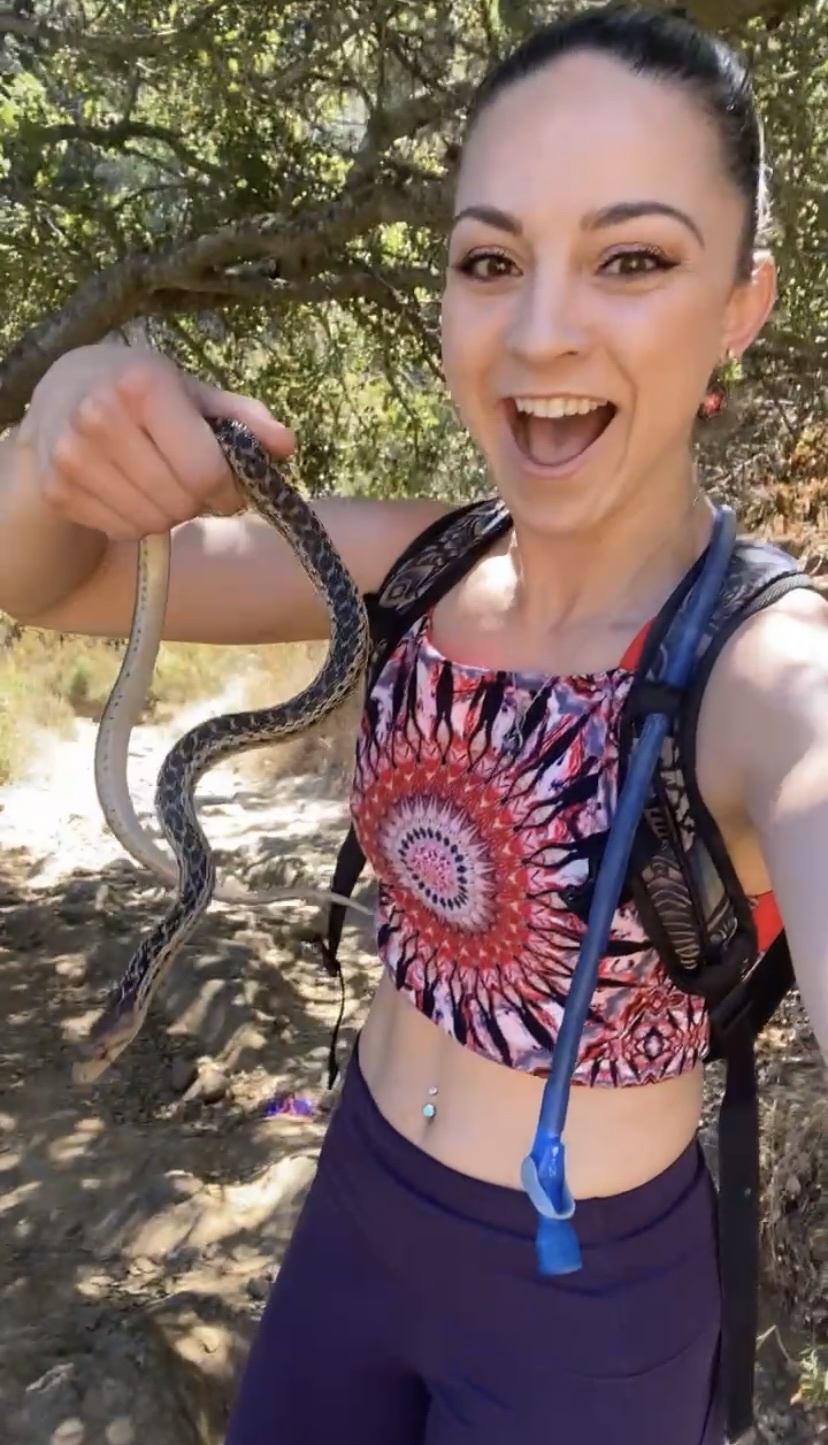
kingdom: Animalia
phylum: Chordata
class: Squamata
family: Colubridae
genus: Pituophis
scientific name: Pituophis catenifer
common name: Gopher snake
